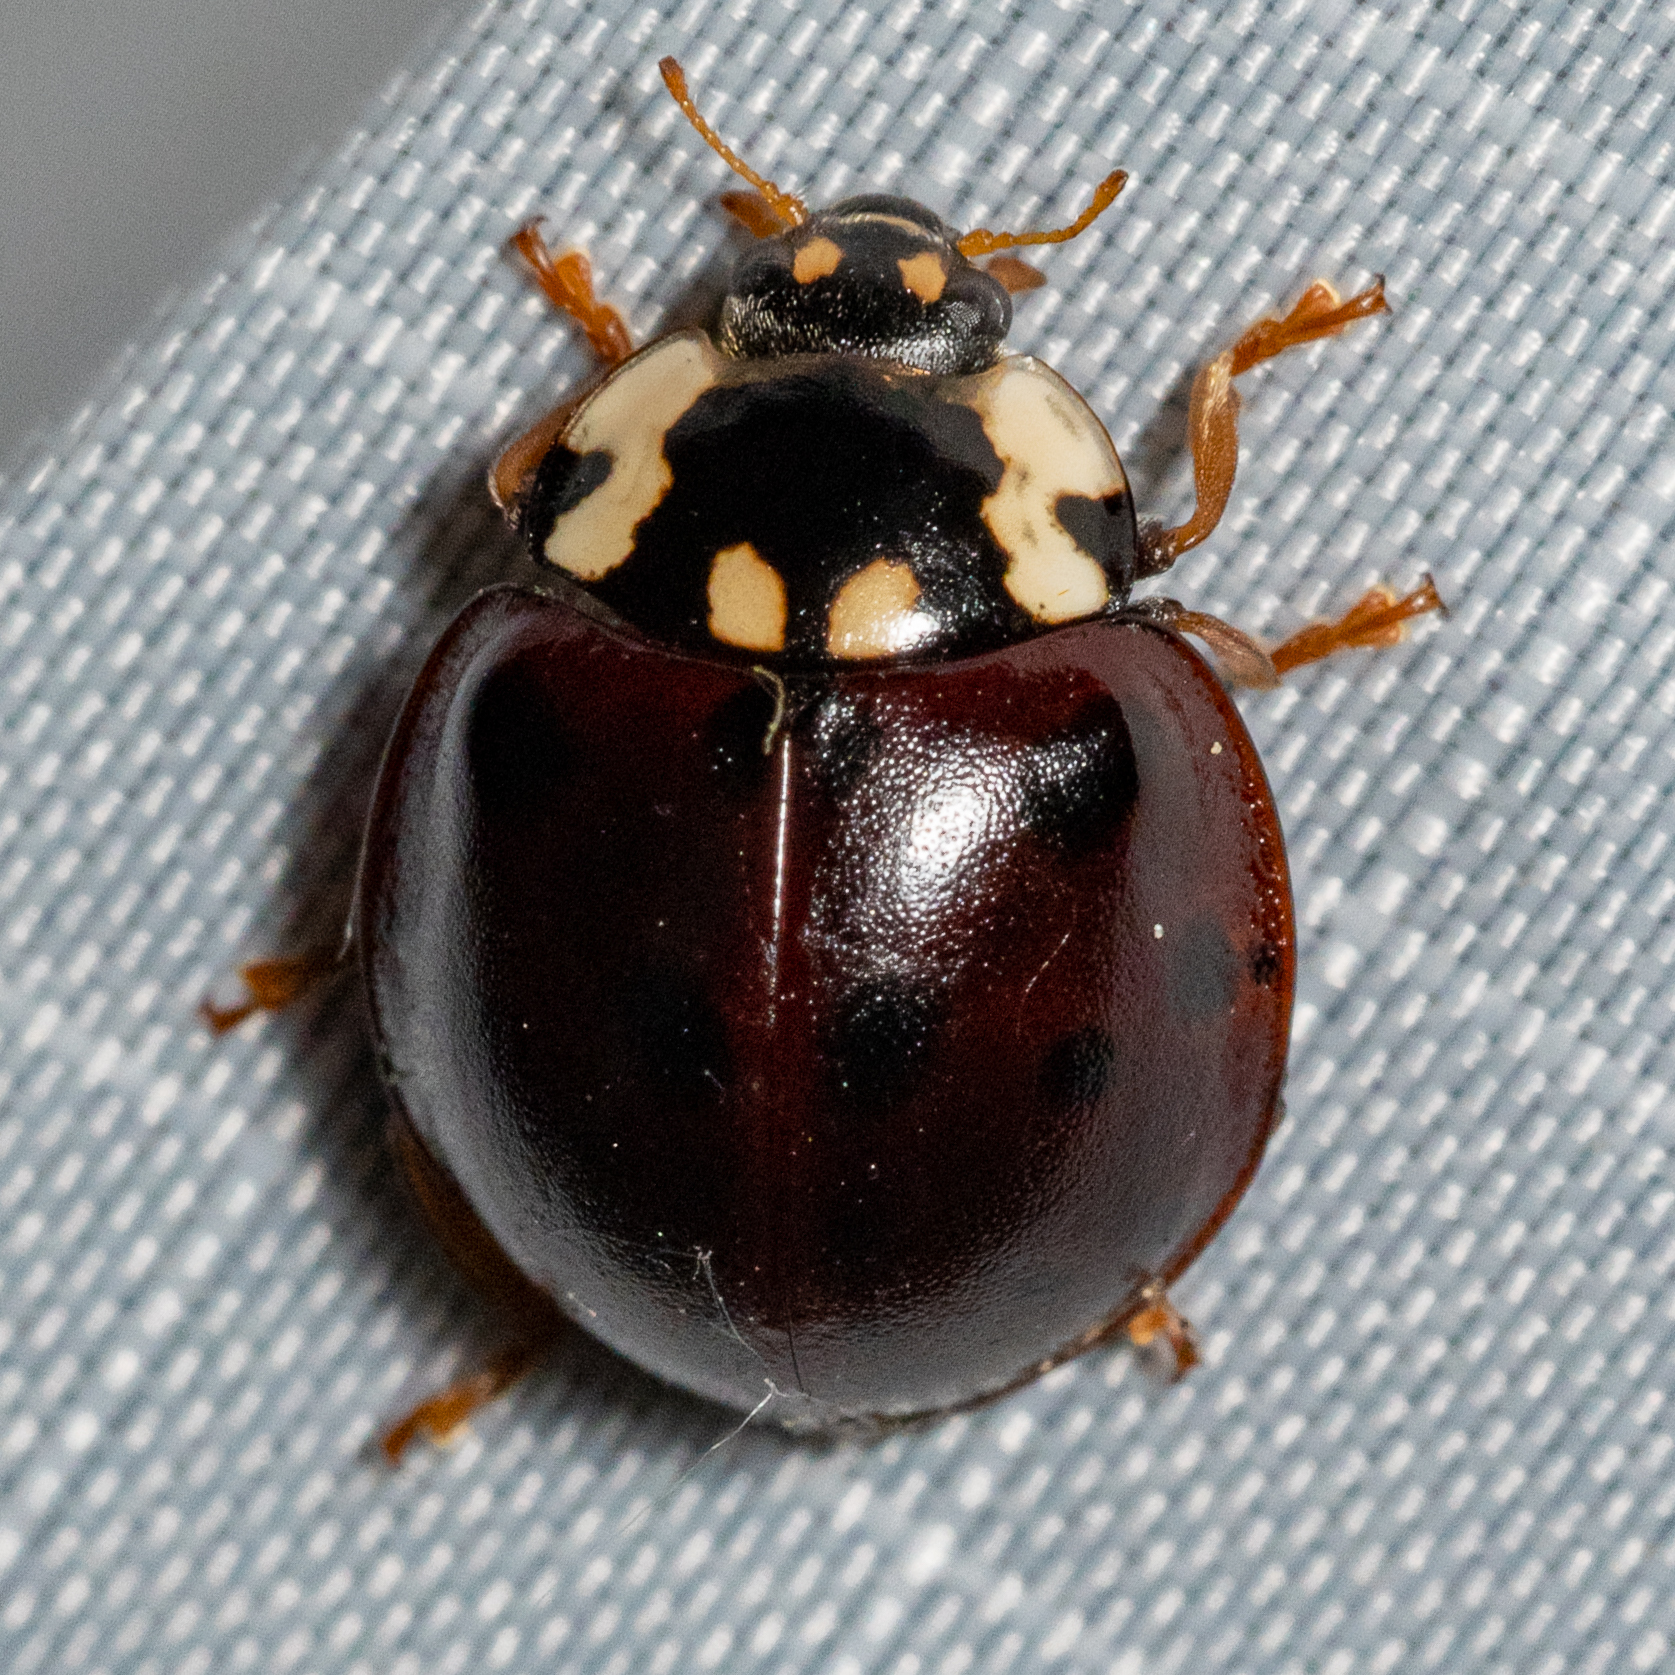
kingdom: Animalia
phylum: Arthropoda
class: Insecta
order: Coleoptera
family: Coccinellidae
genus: Anatis
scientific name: Anatis labiculata
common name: Fifteen-spotted lady beetle
